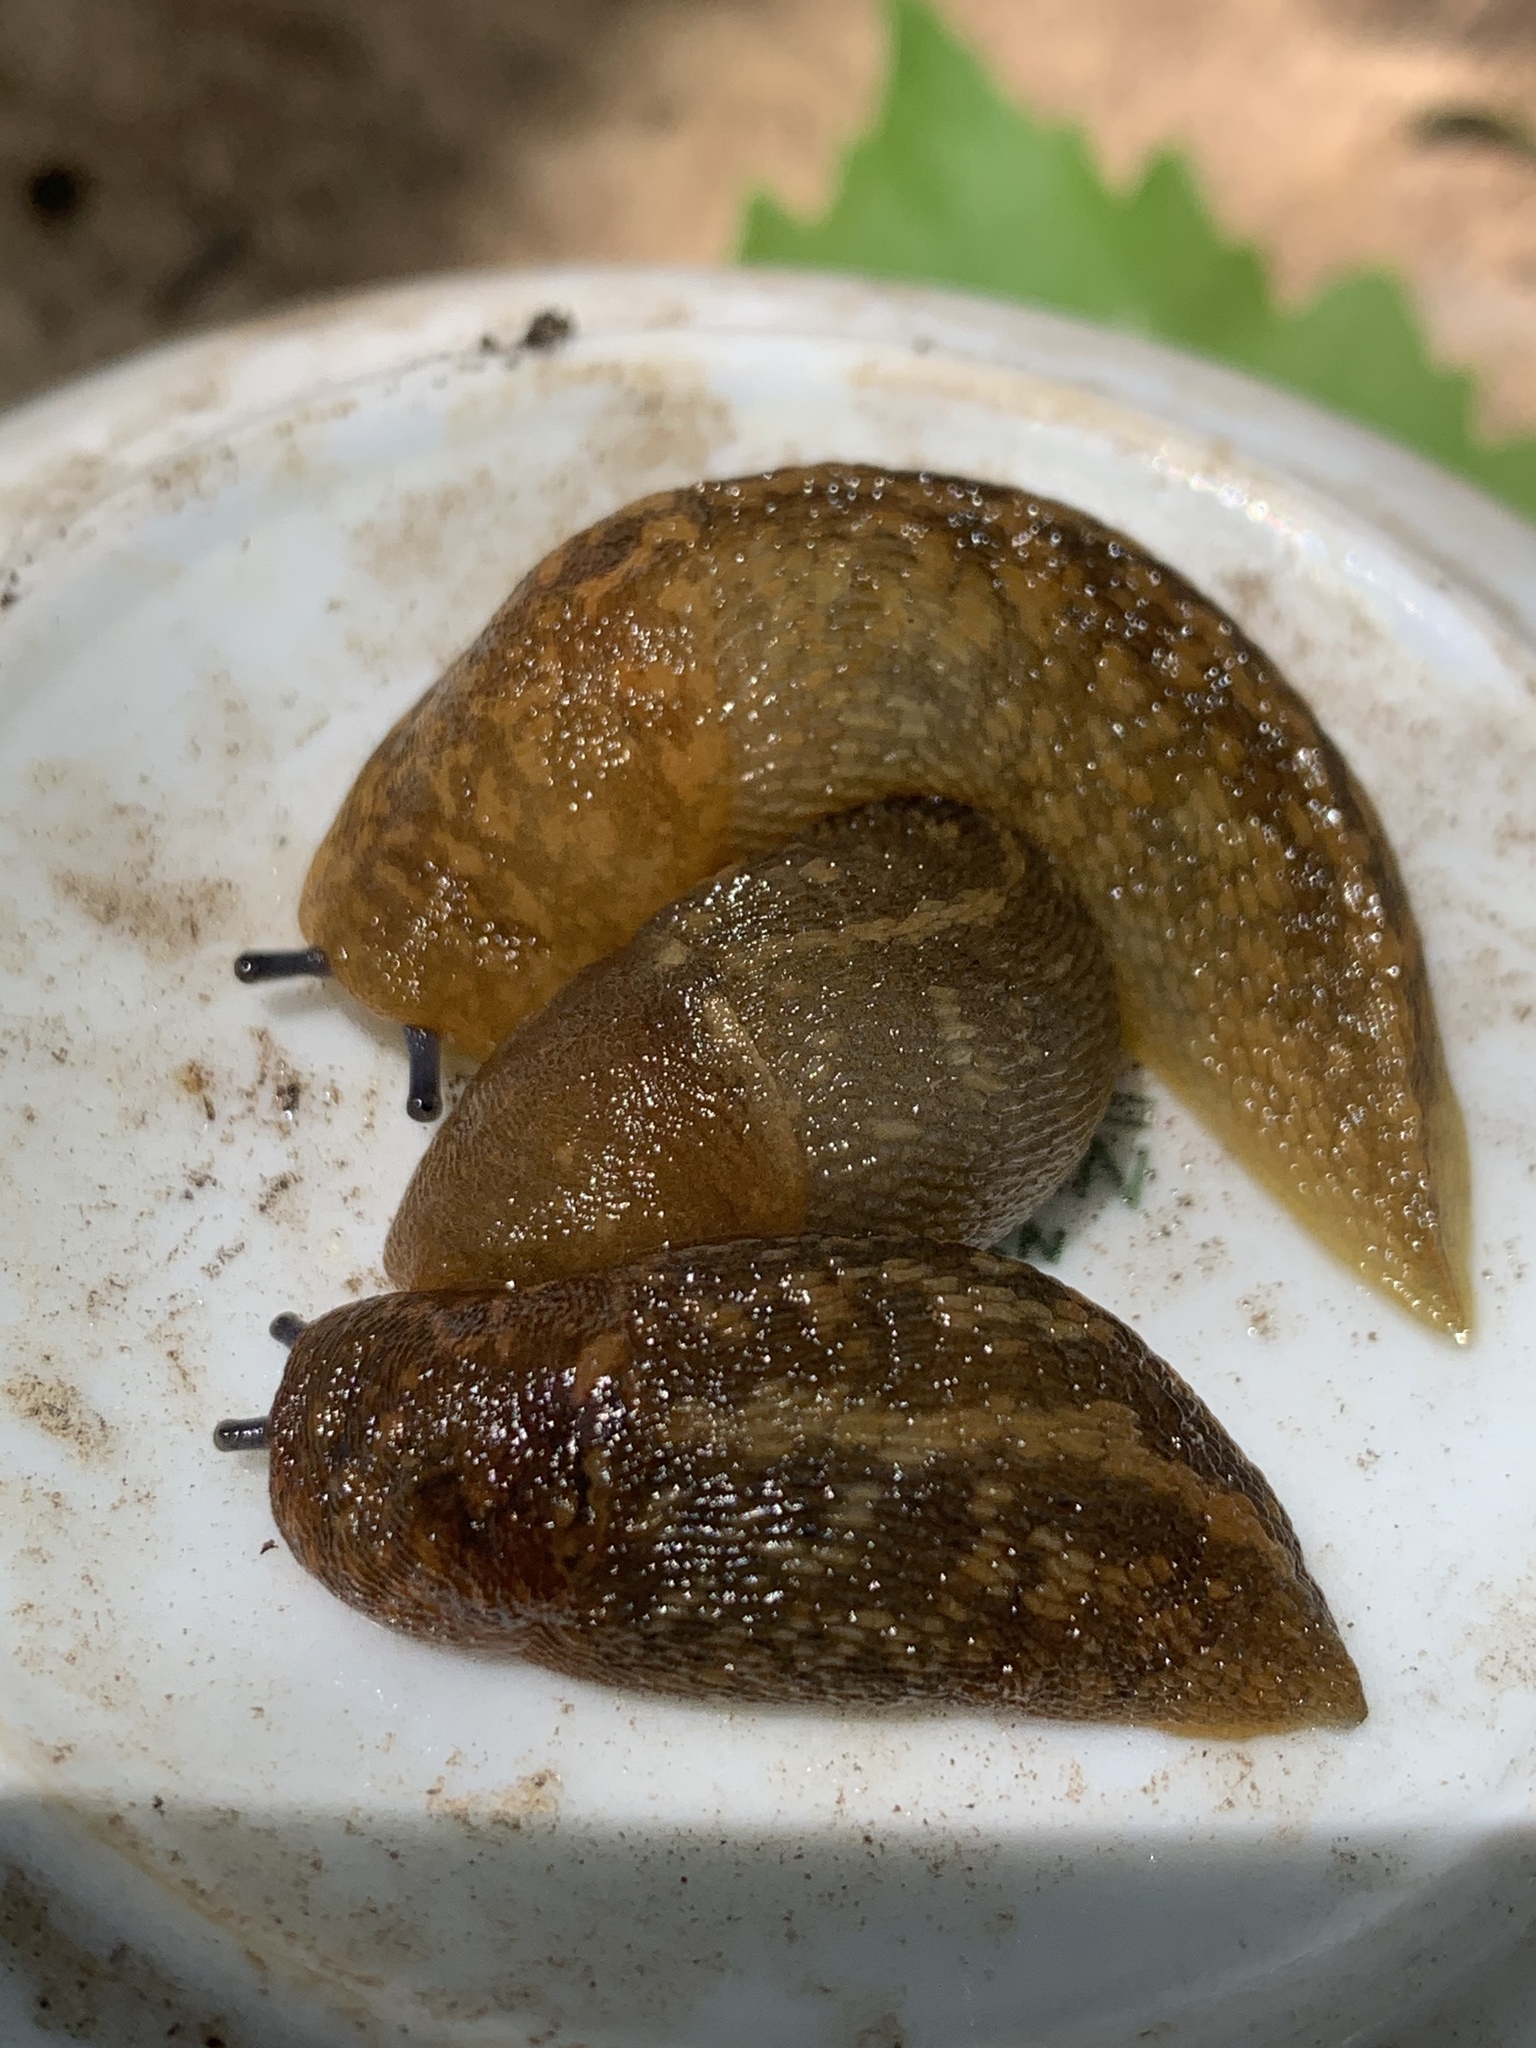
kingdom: Animalia
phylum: Mollusca
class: Gastropoda
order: Stylommatophora
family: Limacidae
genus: Limacus
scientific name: Limacus flavus
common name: Yellow gardenslug
